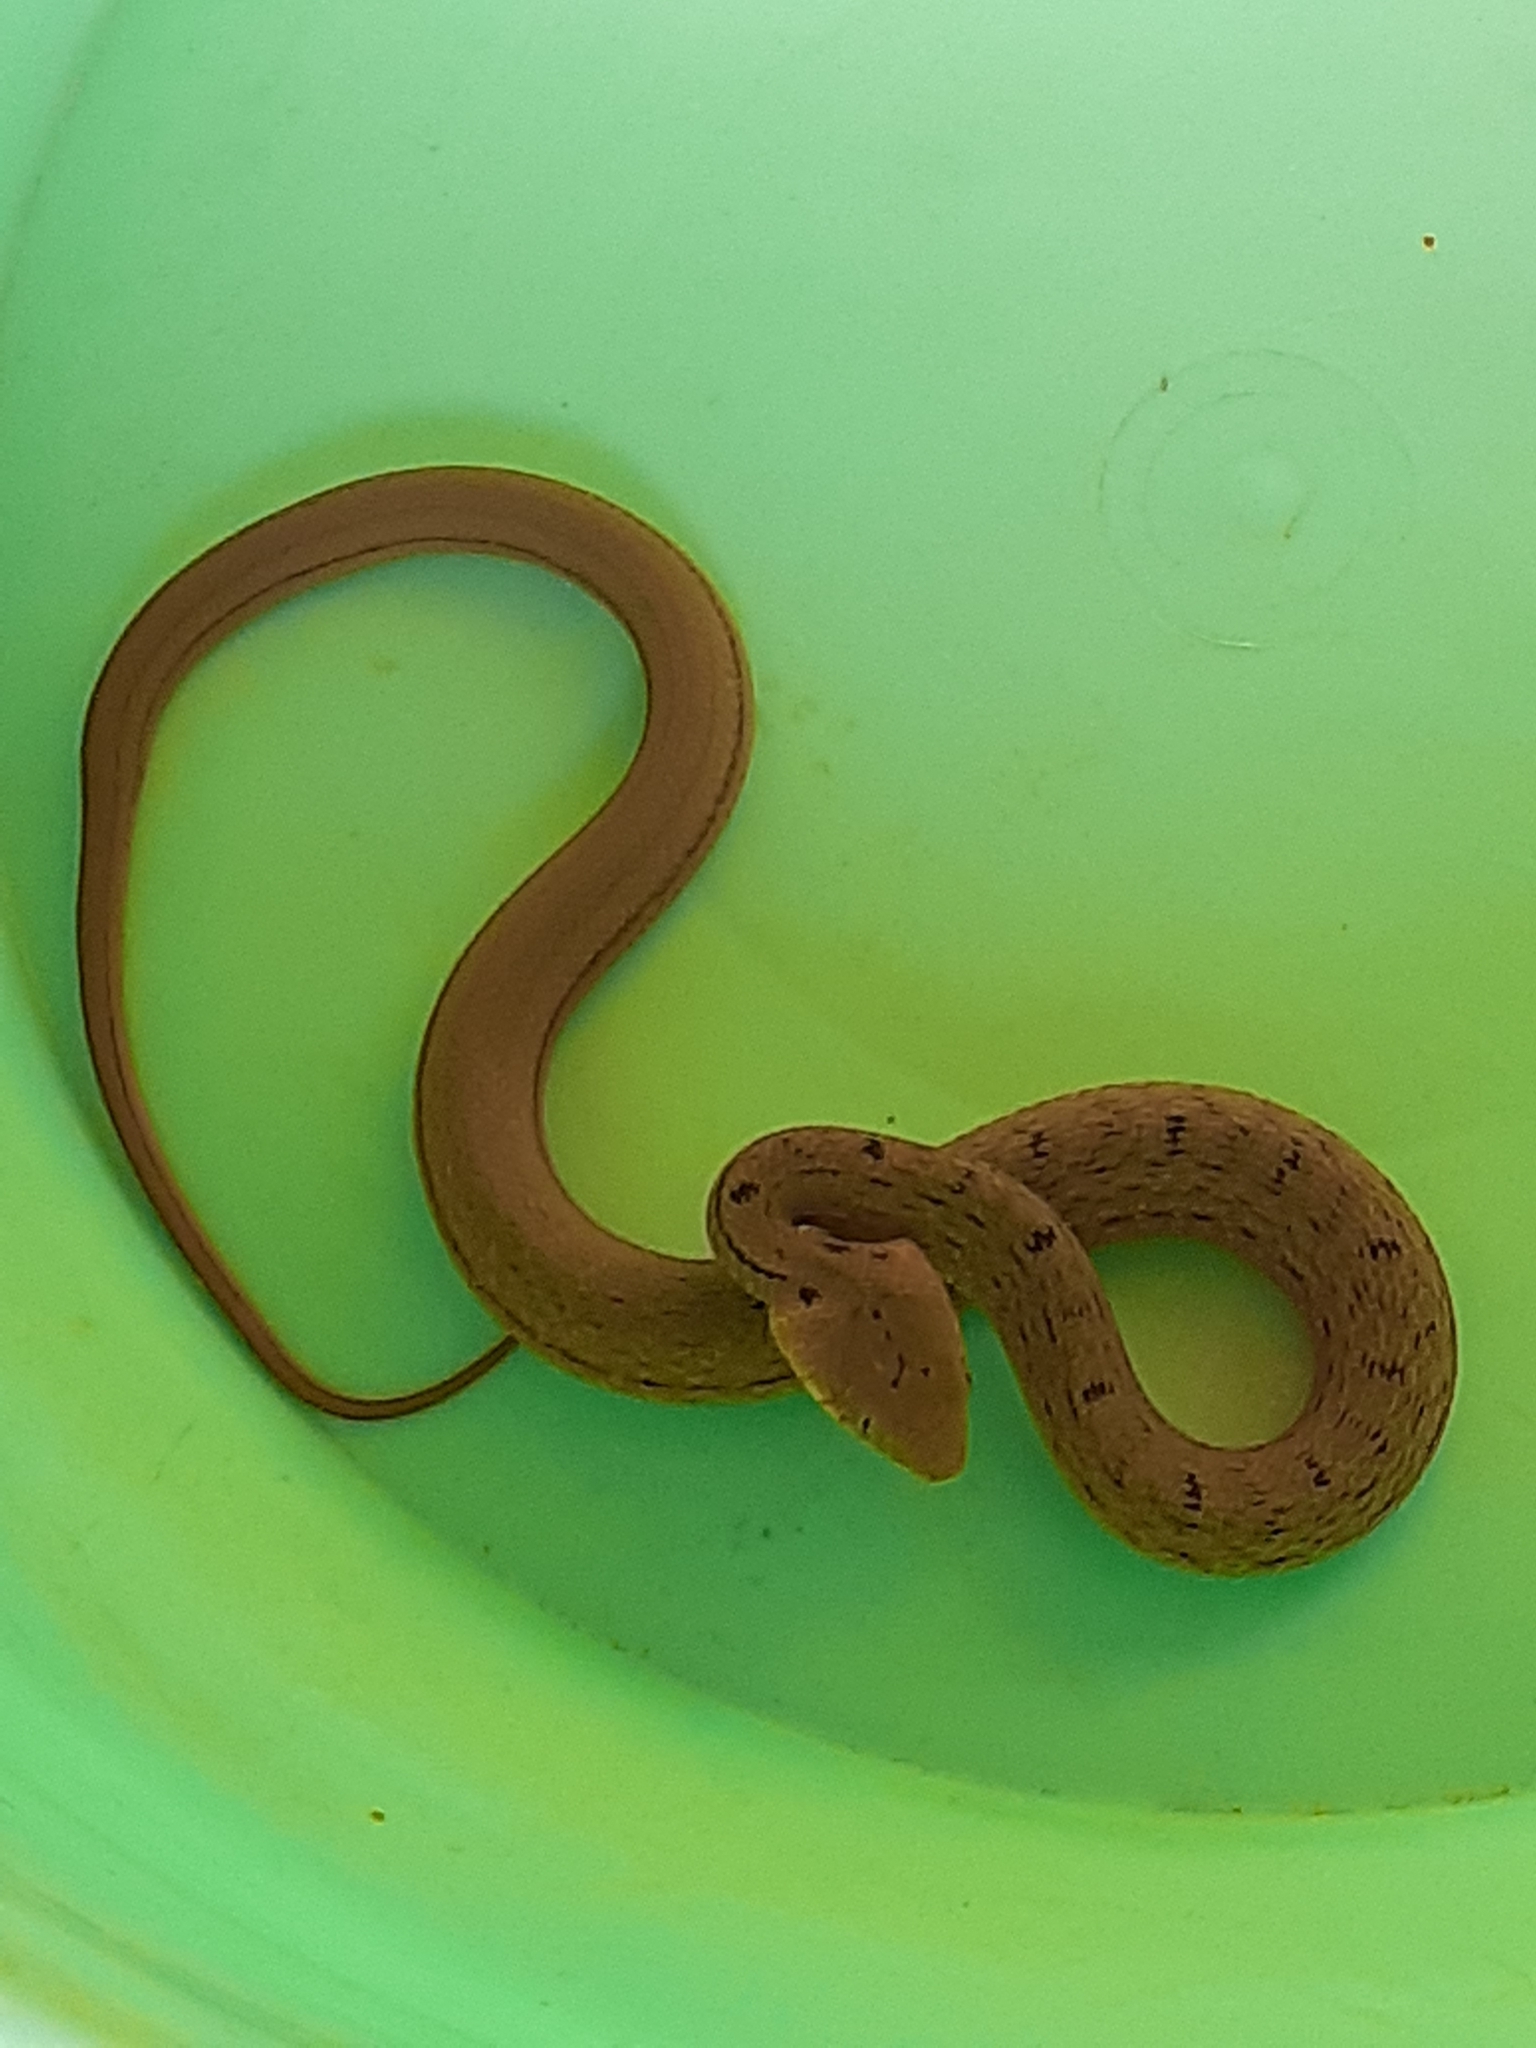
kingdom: Animalia
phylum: Chordata
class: Squamata
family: Colubridae
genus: Elaphe
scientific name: Elaphe carinata
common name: Taiwan stink snake
